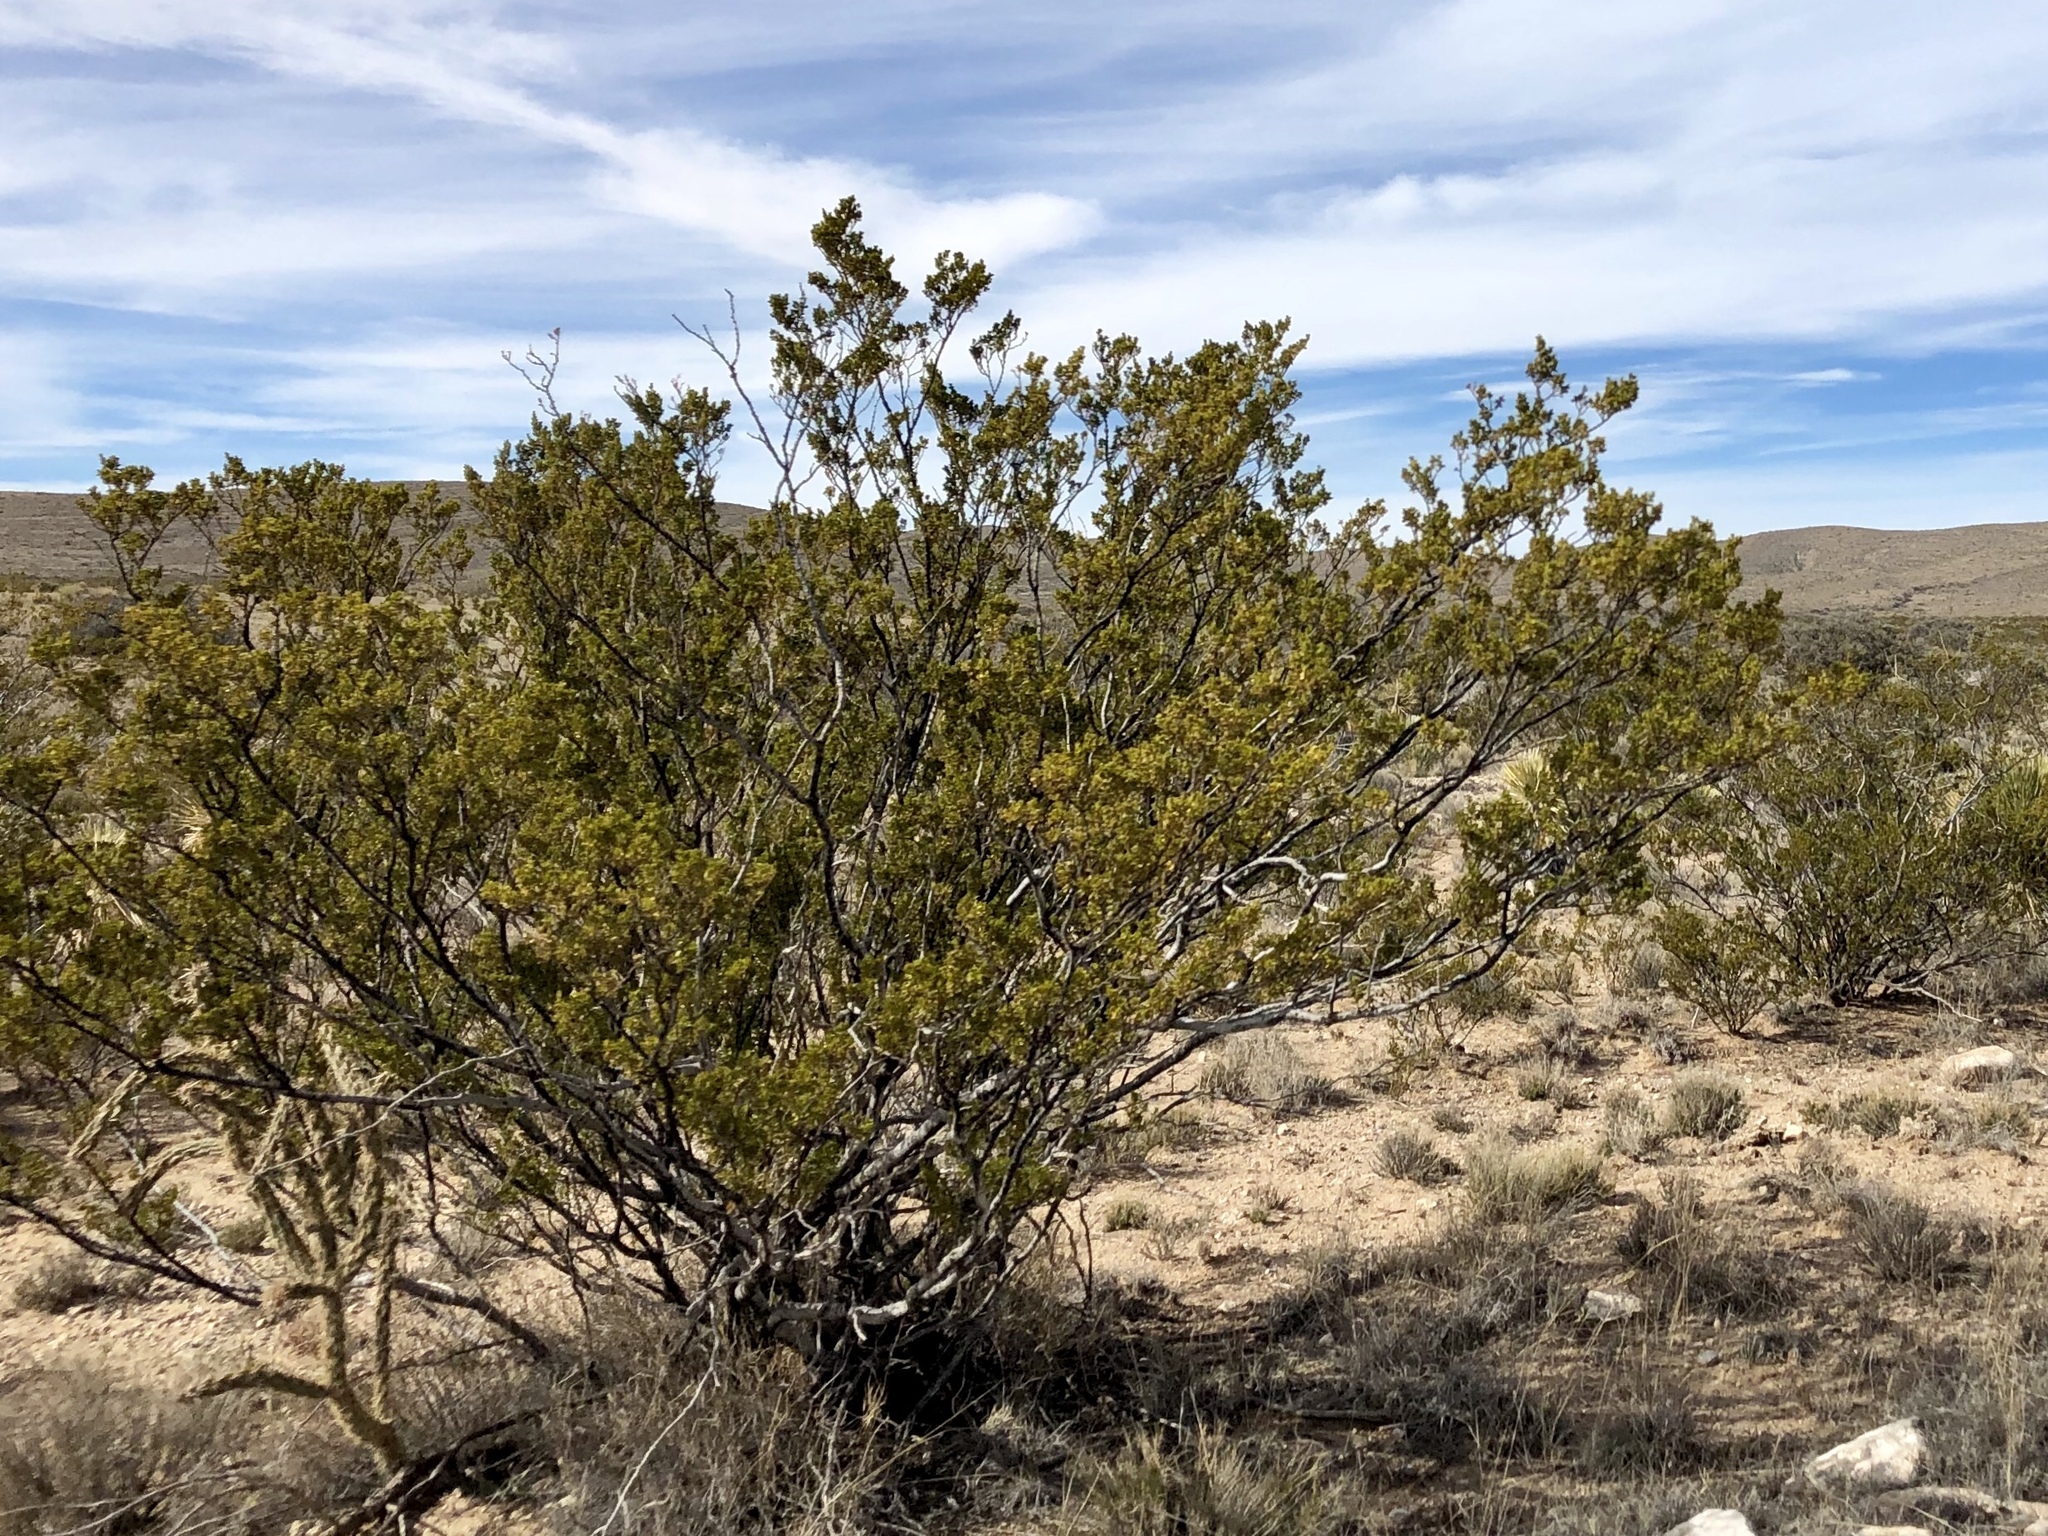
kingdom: Plantae
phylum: Tracheophyta
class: Magnoliopsida
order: Zygophyllales
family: Zygophyllaceae
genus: Larrea
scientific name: Larrea tridentata
